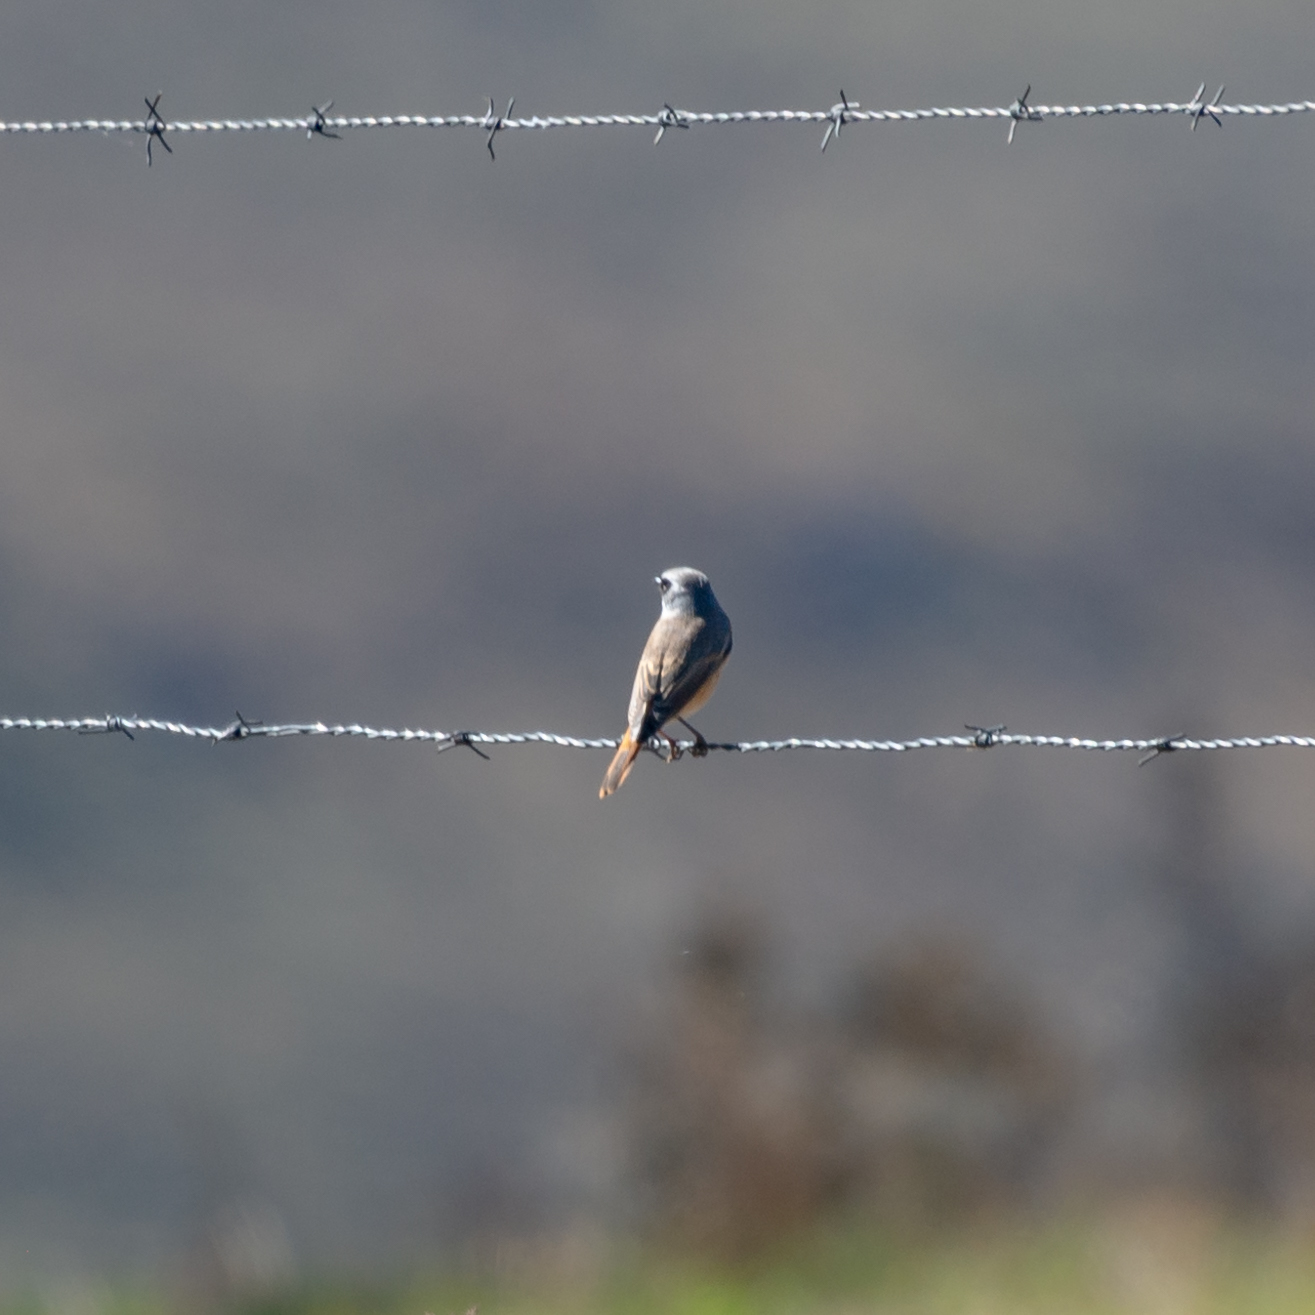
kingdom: Animalia
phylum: Chordata
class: Aves
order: Passeriformes
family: Muscicapidae
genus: Phoenicurus
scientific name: Phoenicurus phoenicurus
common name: Common redstart
